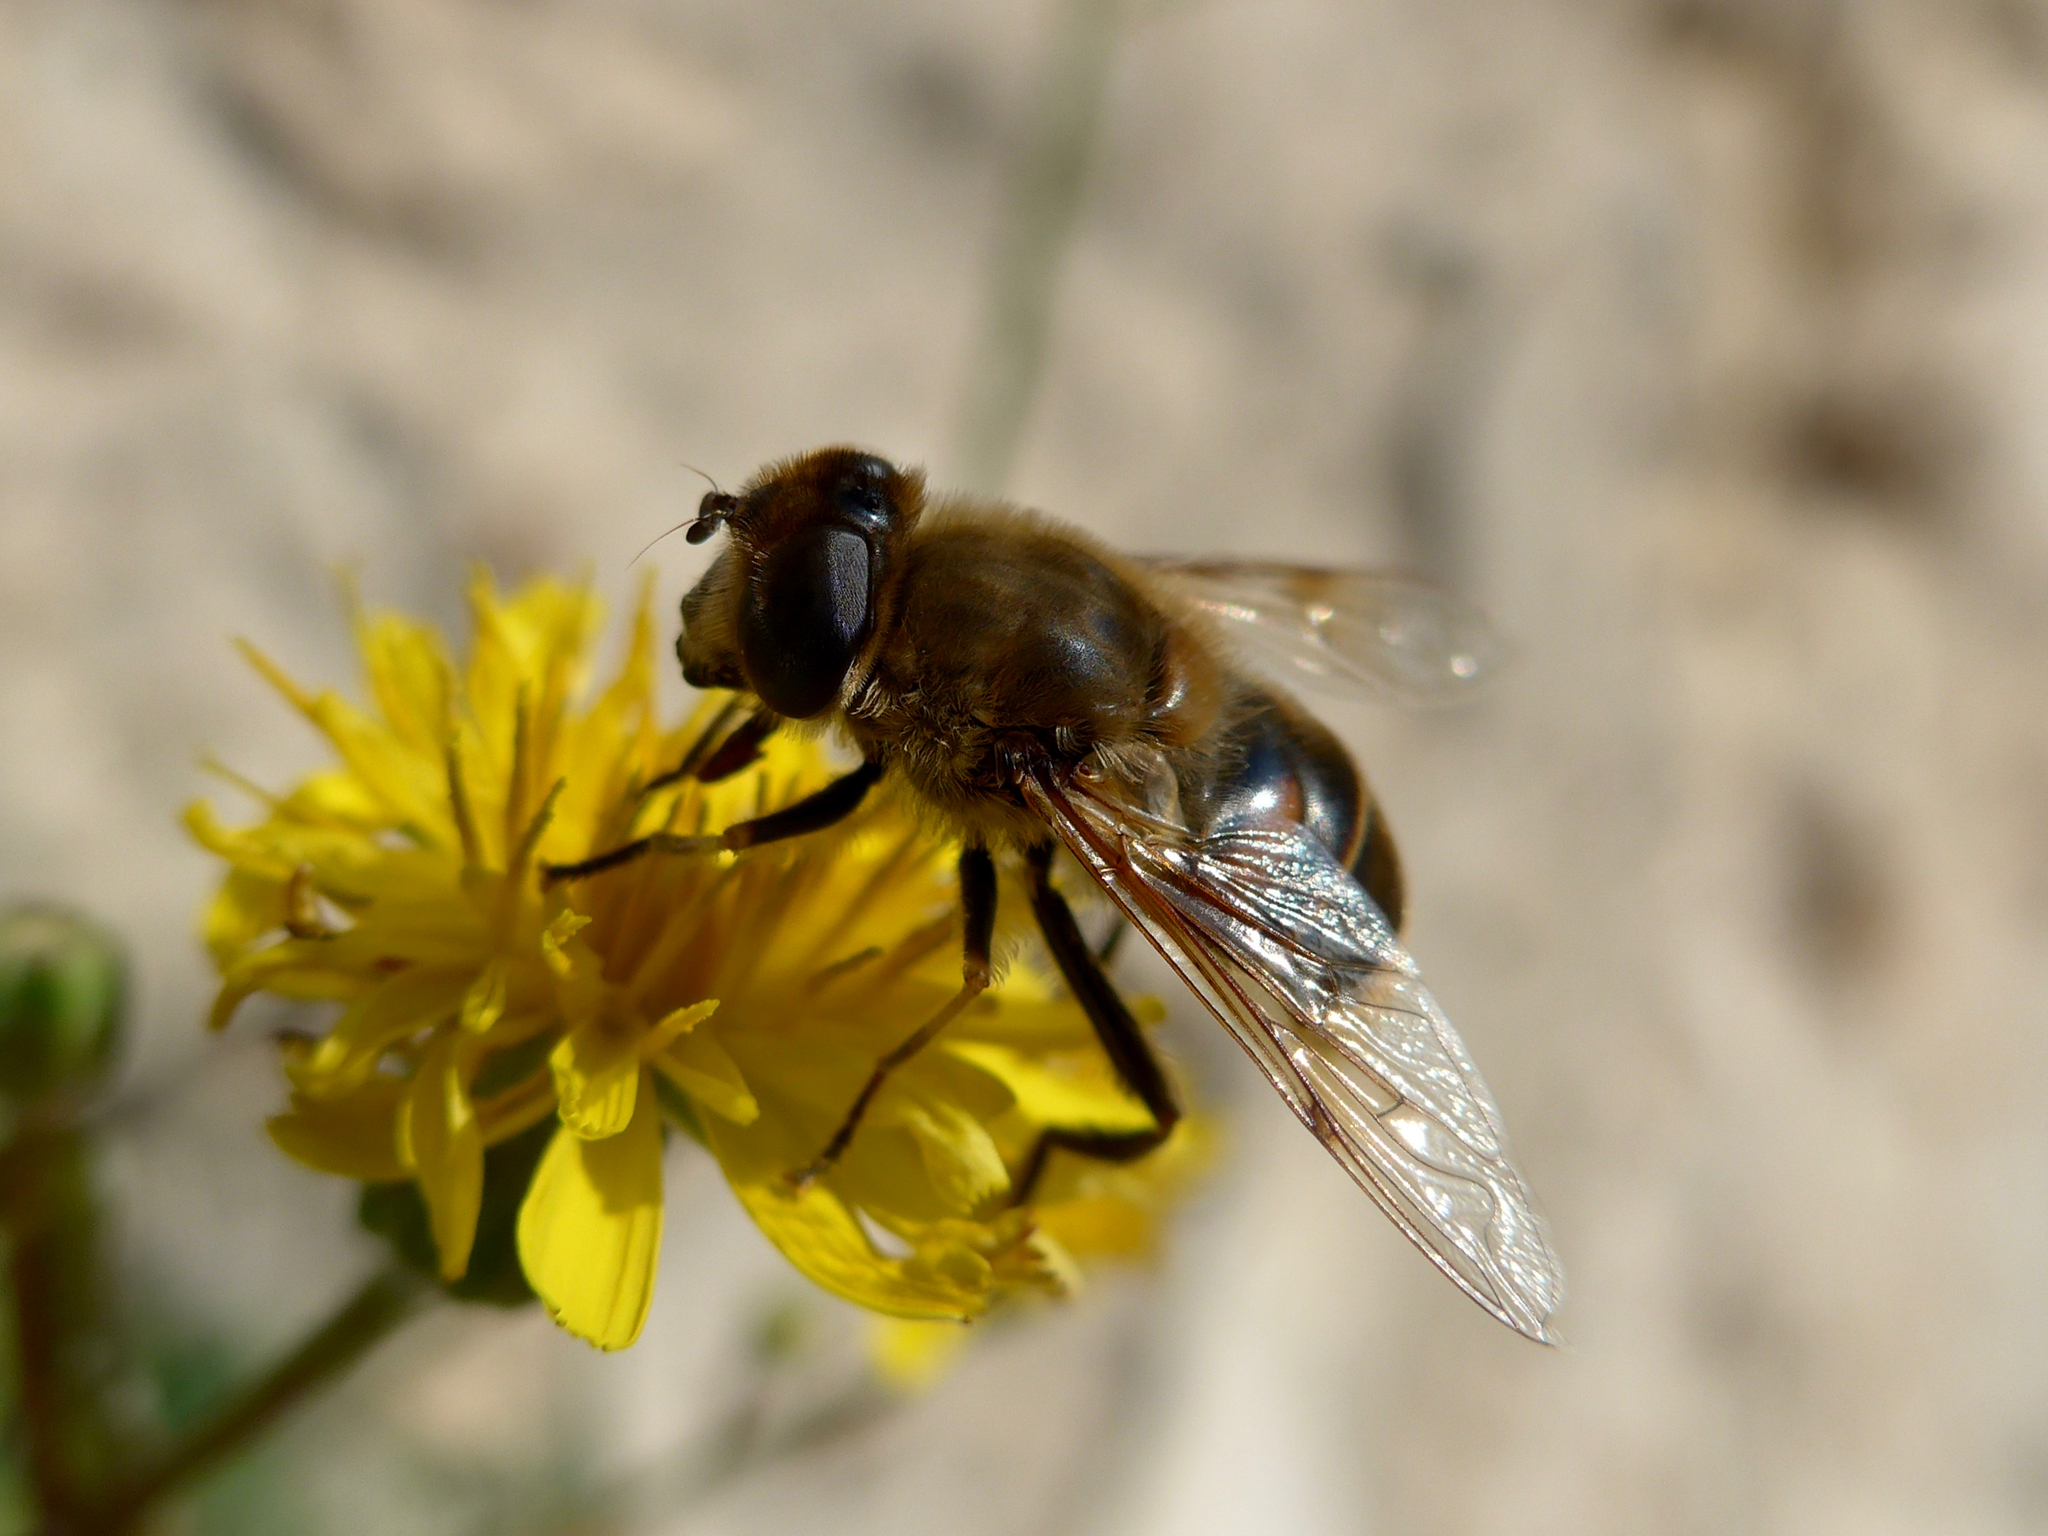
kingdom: Animalia
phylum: Arthropoda
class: Insecta
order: Diptera
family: Syrphidae
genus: Eristalis
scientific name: Eristalis tenax
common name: Drone fly
